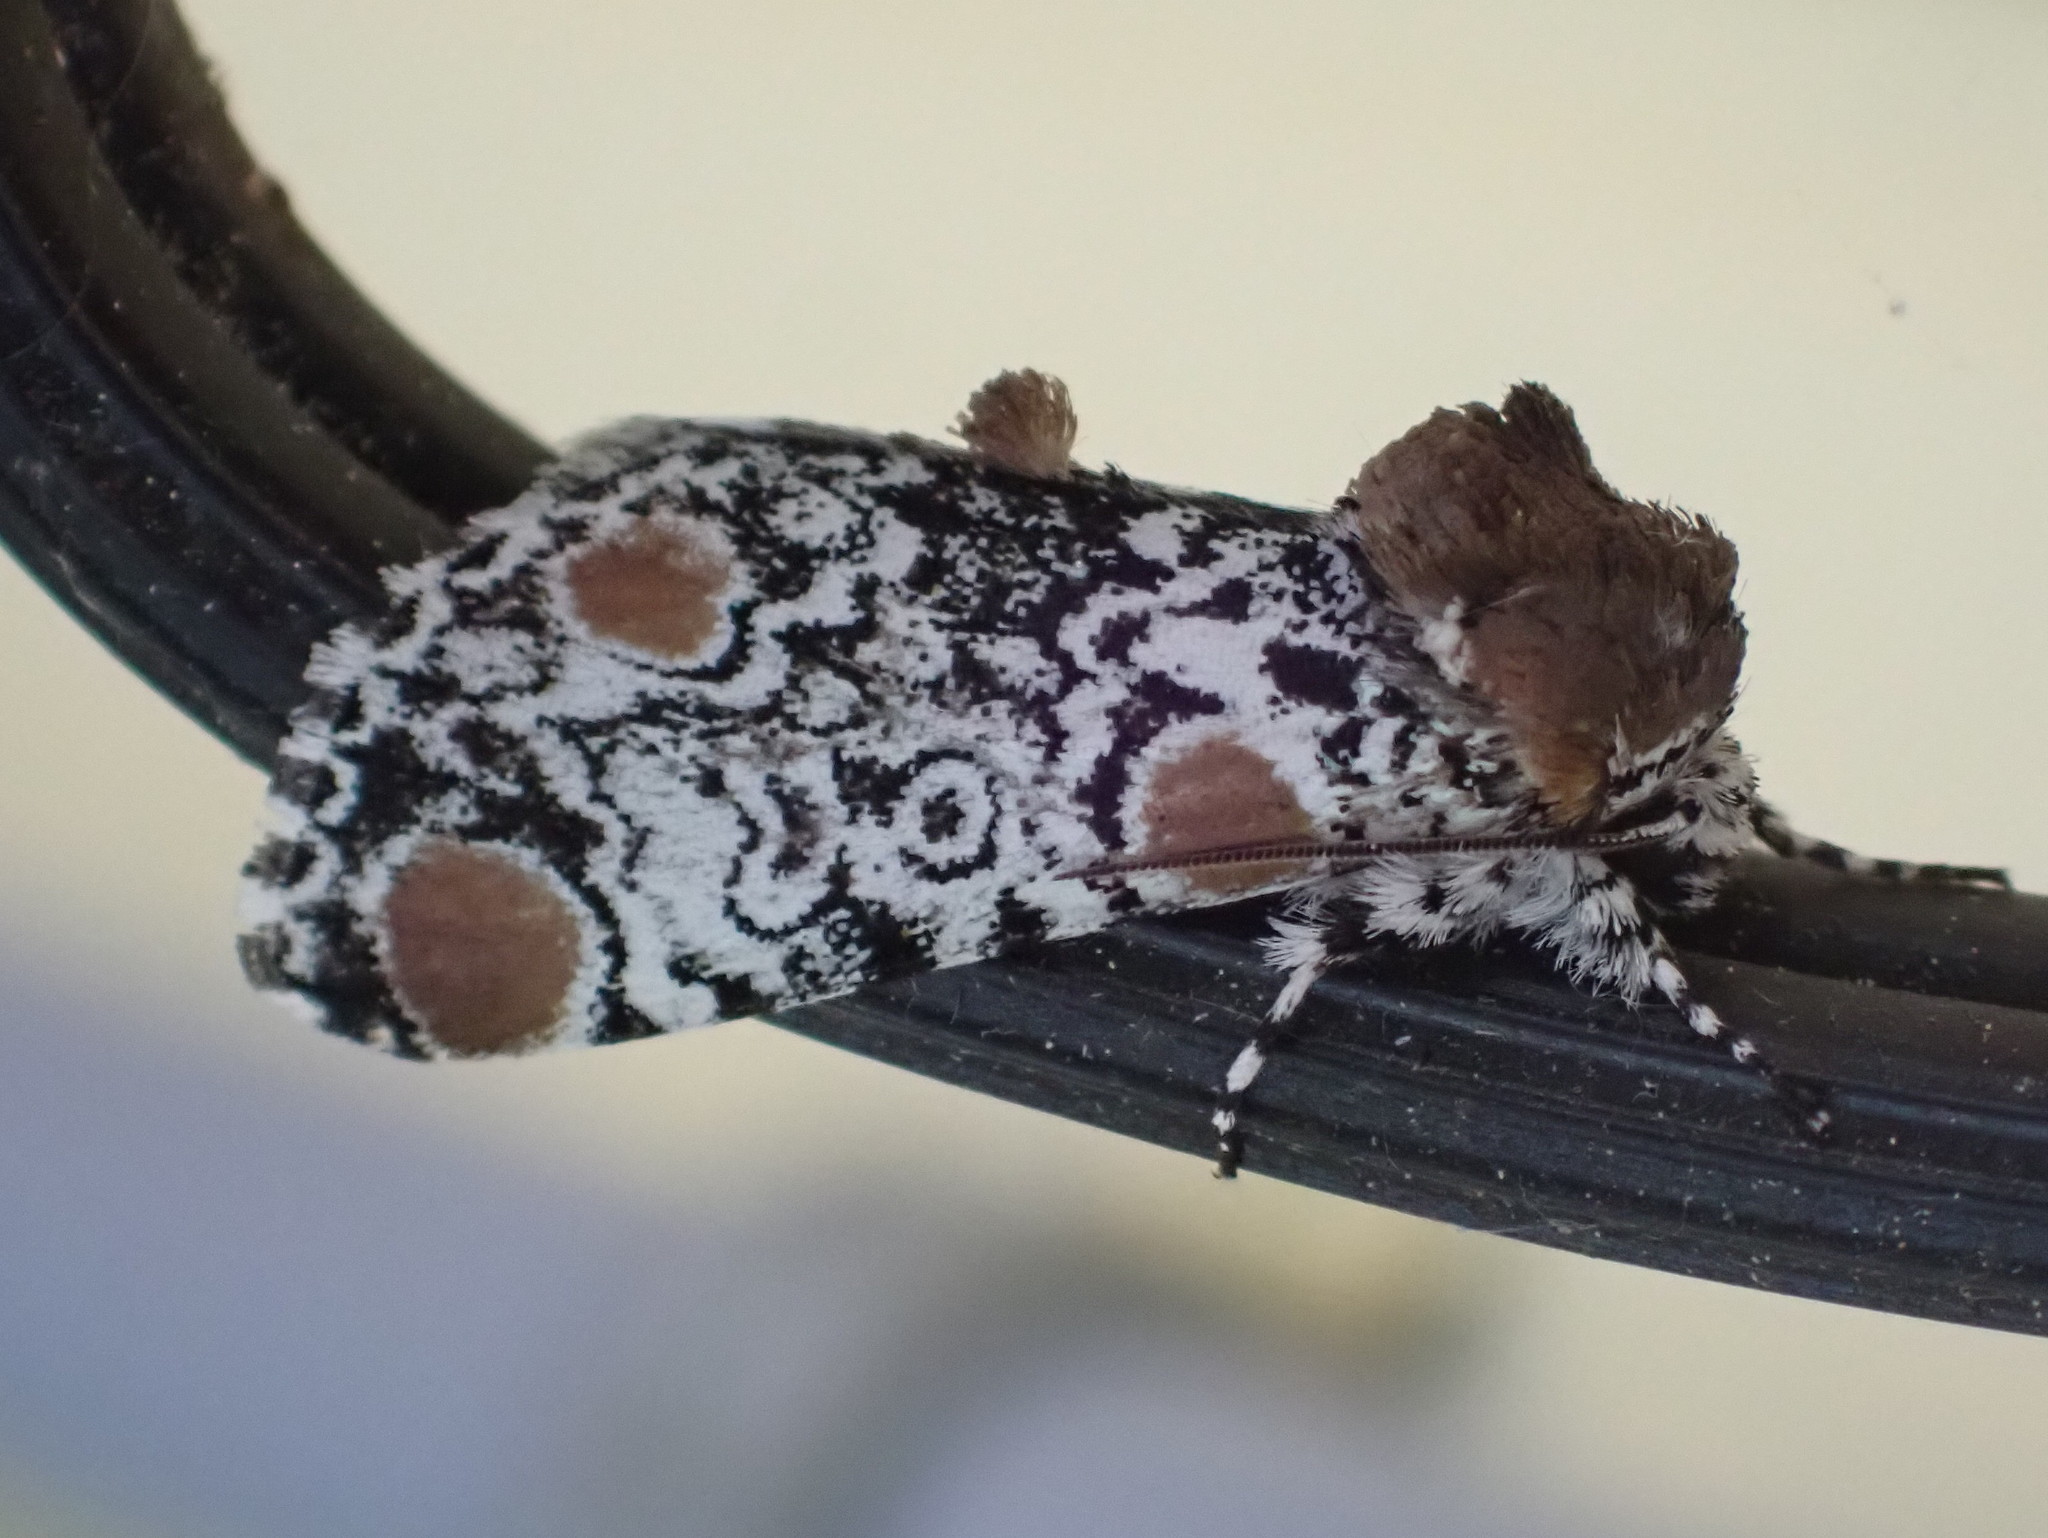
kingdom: Animalia
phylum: Arthropoda
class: Insecta
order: Lepidoptera
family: Noctuidae
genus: Harrisimemna
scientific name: Harrisimemna trisignata
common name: Harris threespot
